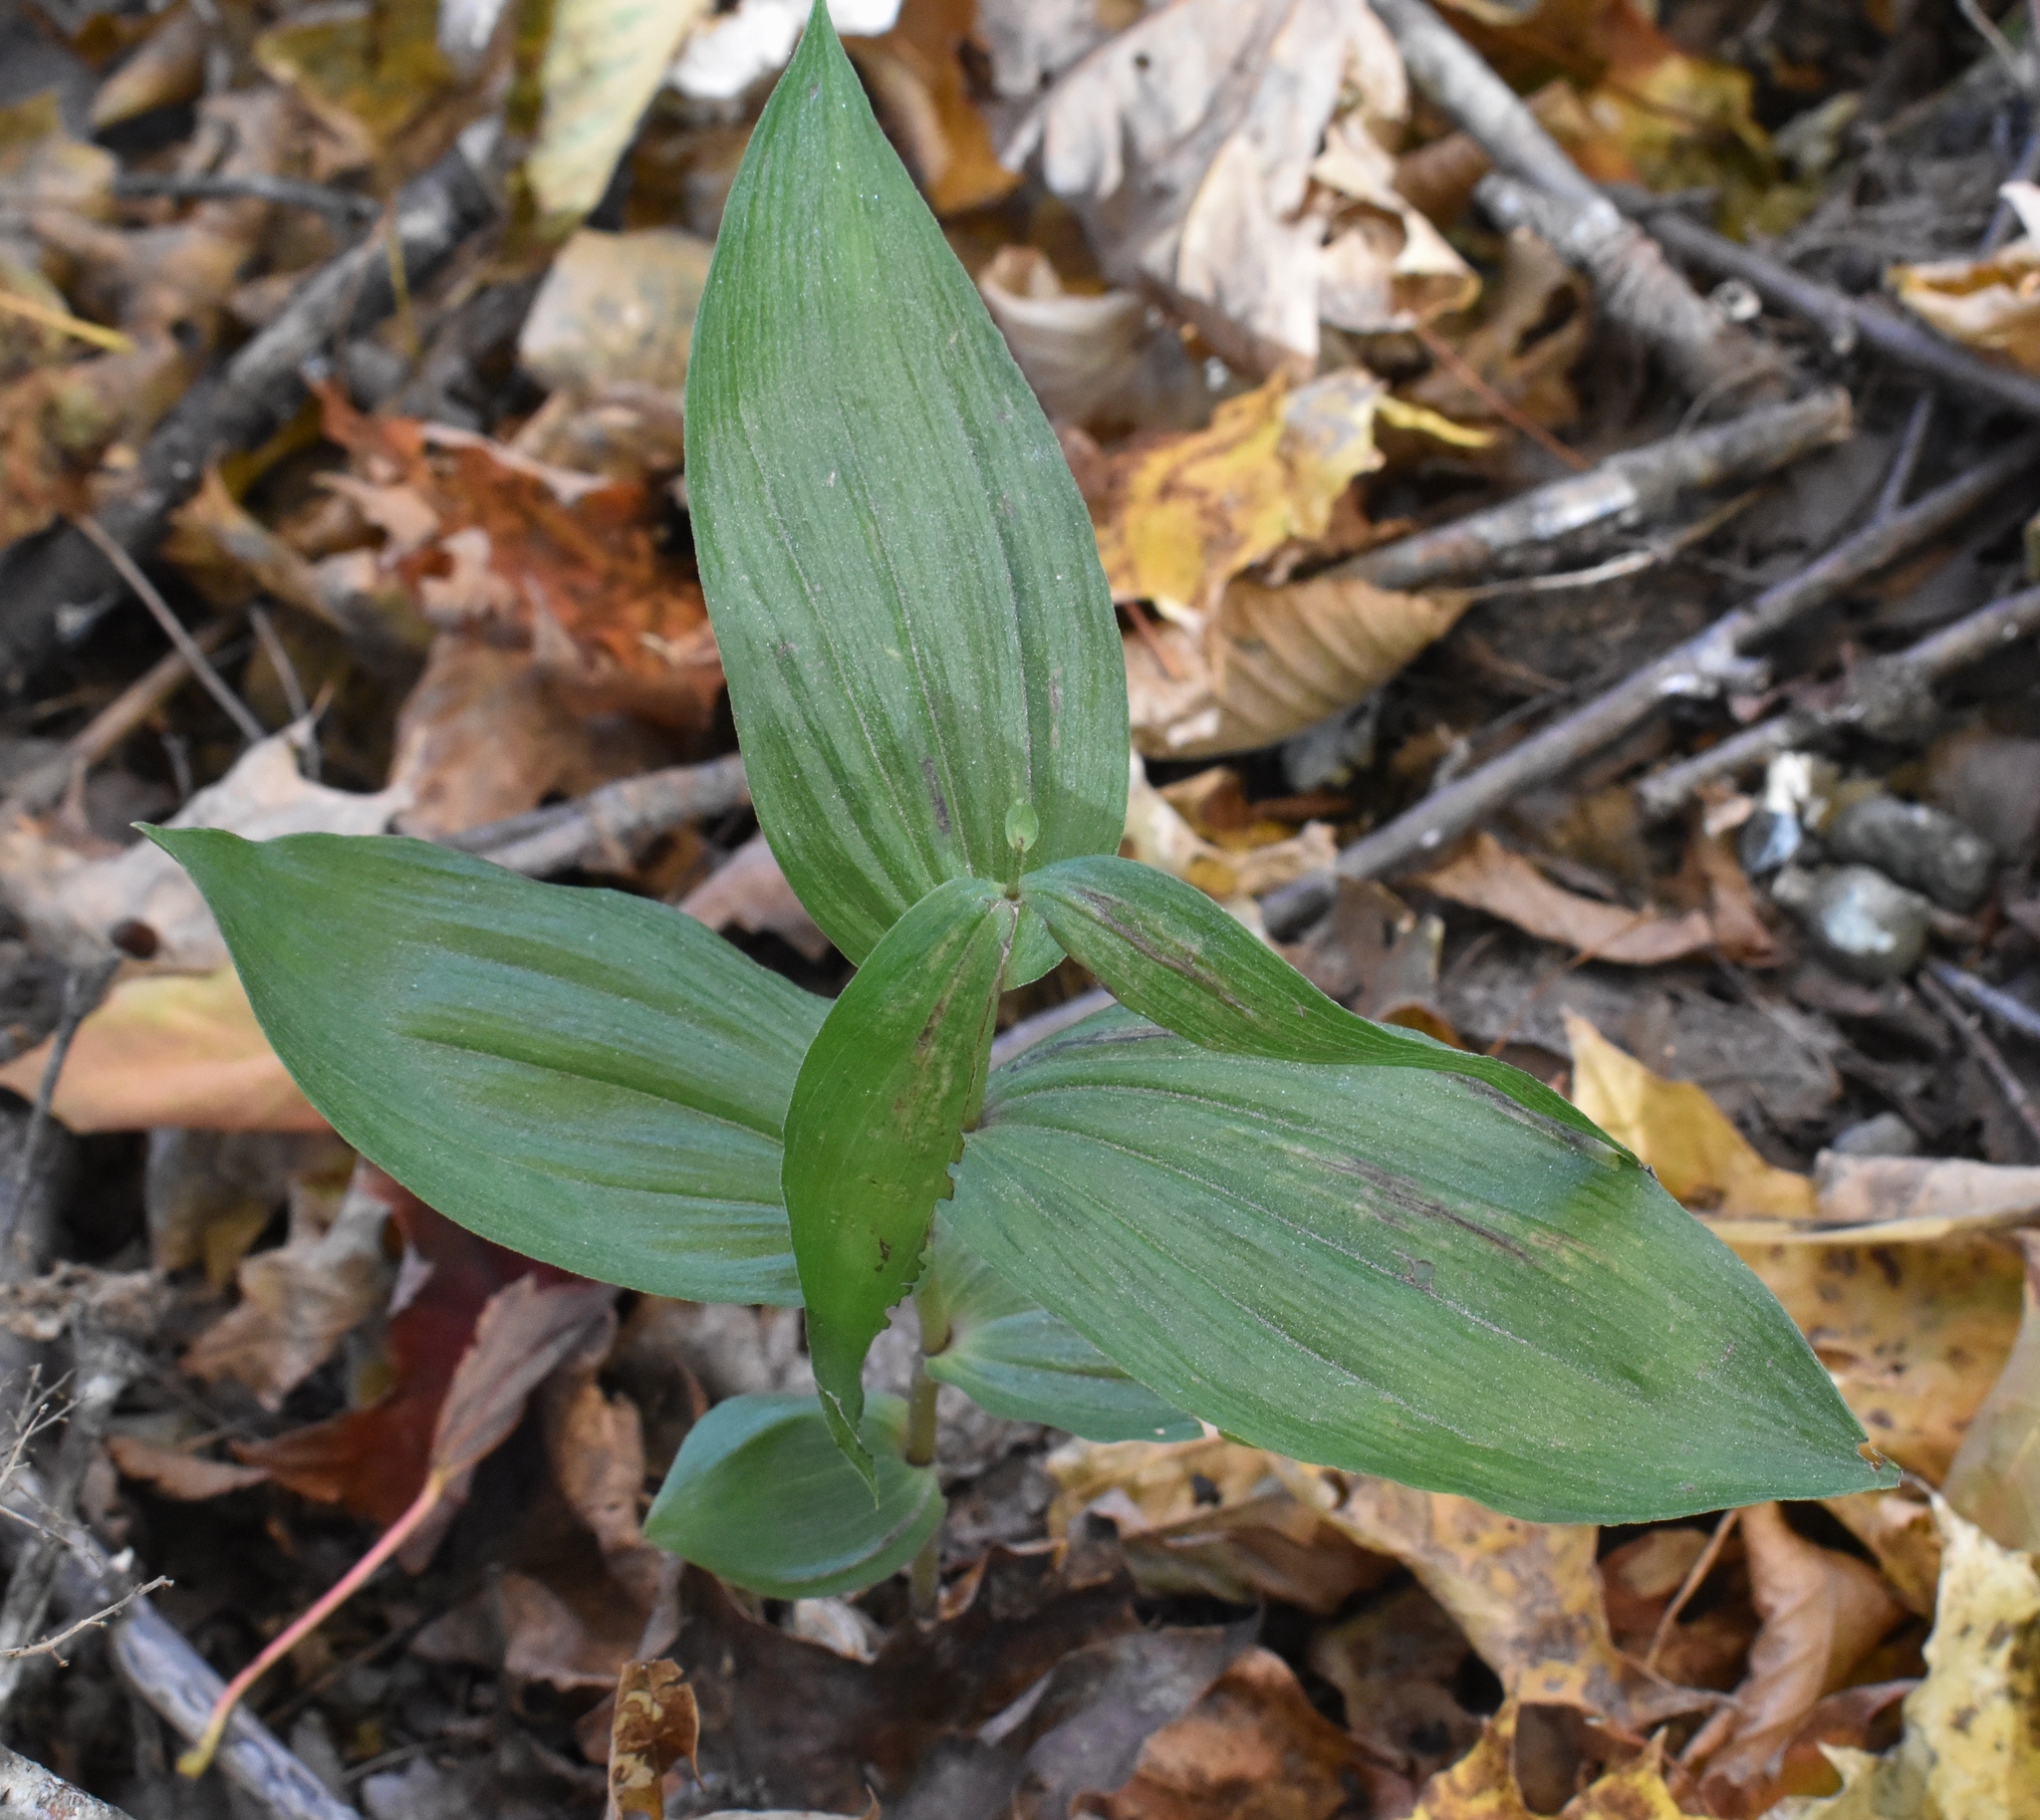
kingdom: Plantae
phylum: Tracheophyta
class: Liliopsida
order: Asparagales
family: Orchidaceae
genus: Epipactis
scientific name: Epipactis helleborine
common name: Broad-leaved helleborine
